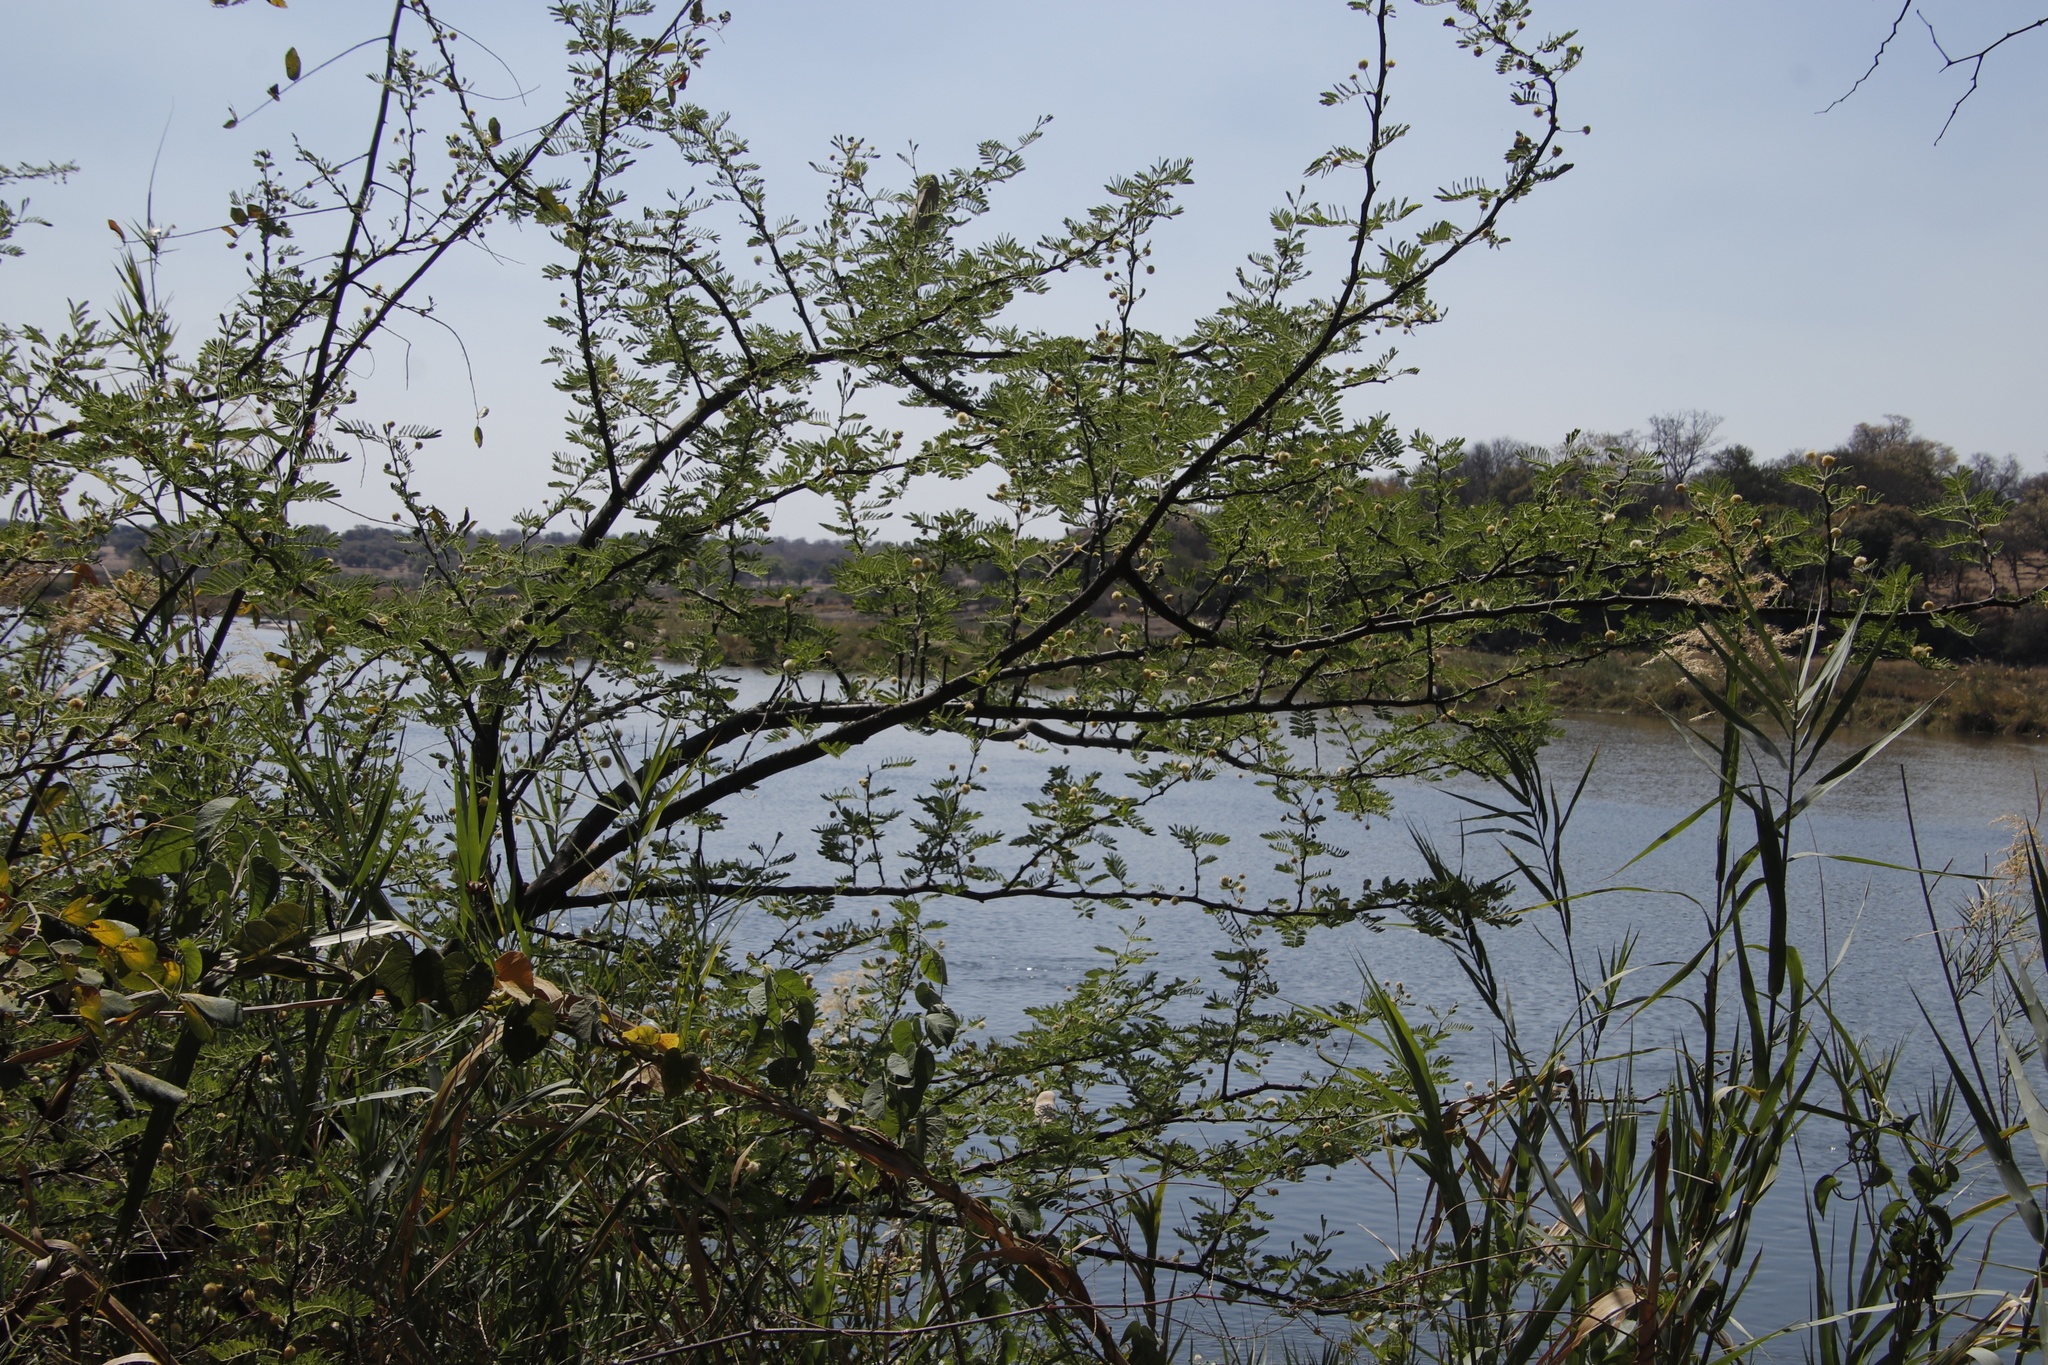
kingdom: Plantae
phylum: Tracheophyta
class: Magnoliopsida
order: Fabales
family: Fabaceae
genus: Vachellia
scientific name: Vachellia hebeclada
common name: Candle thorn
